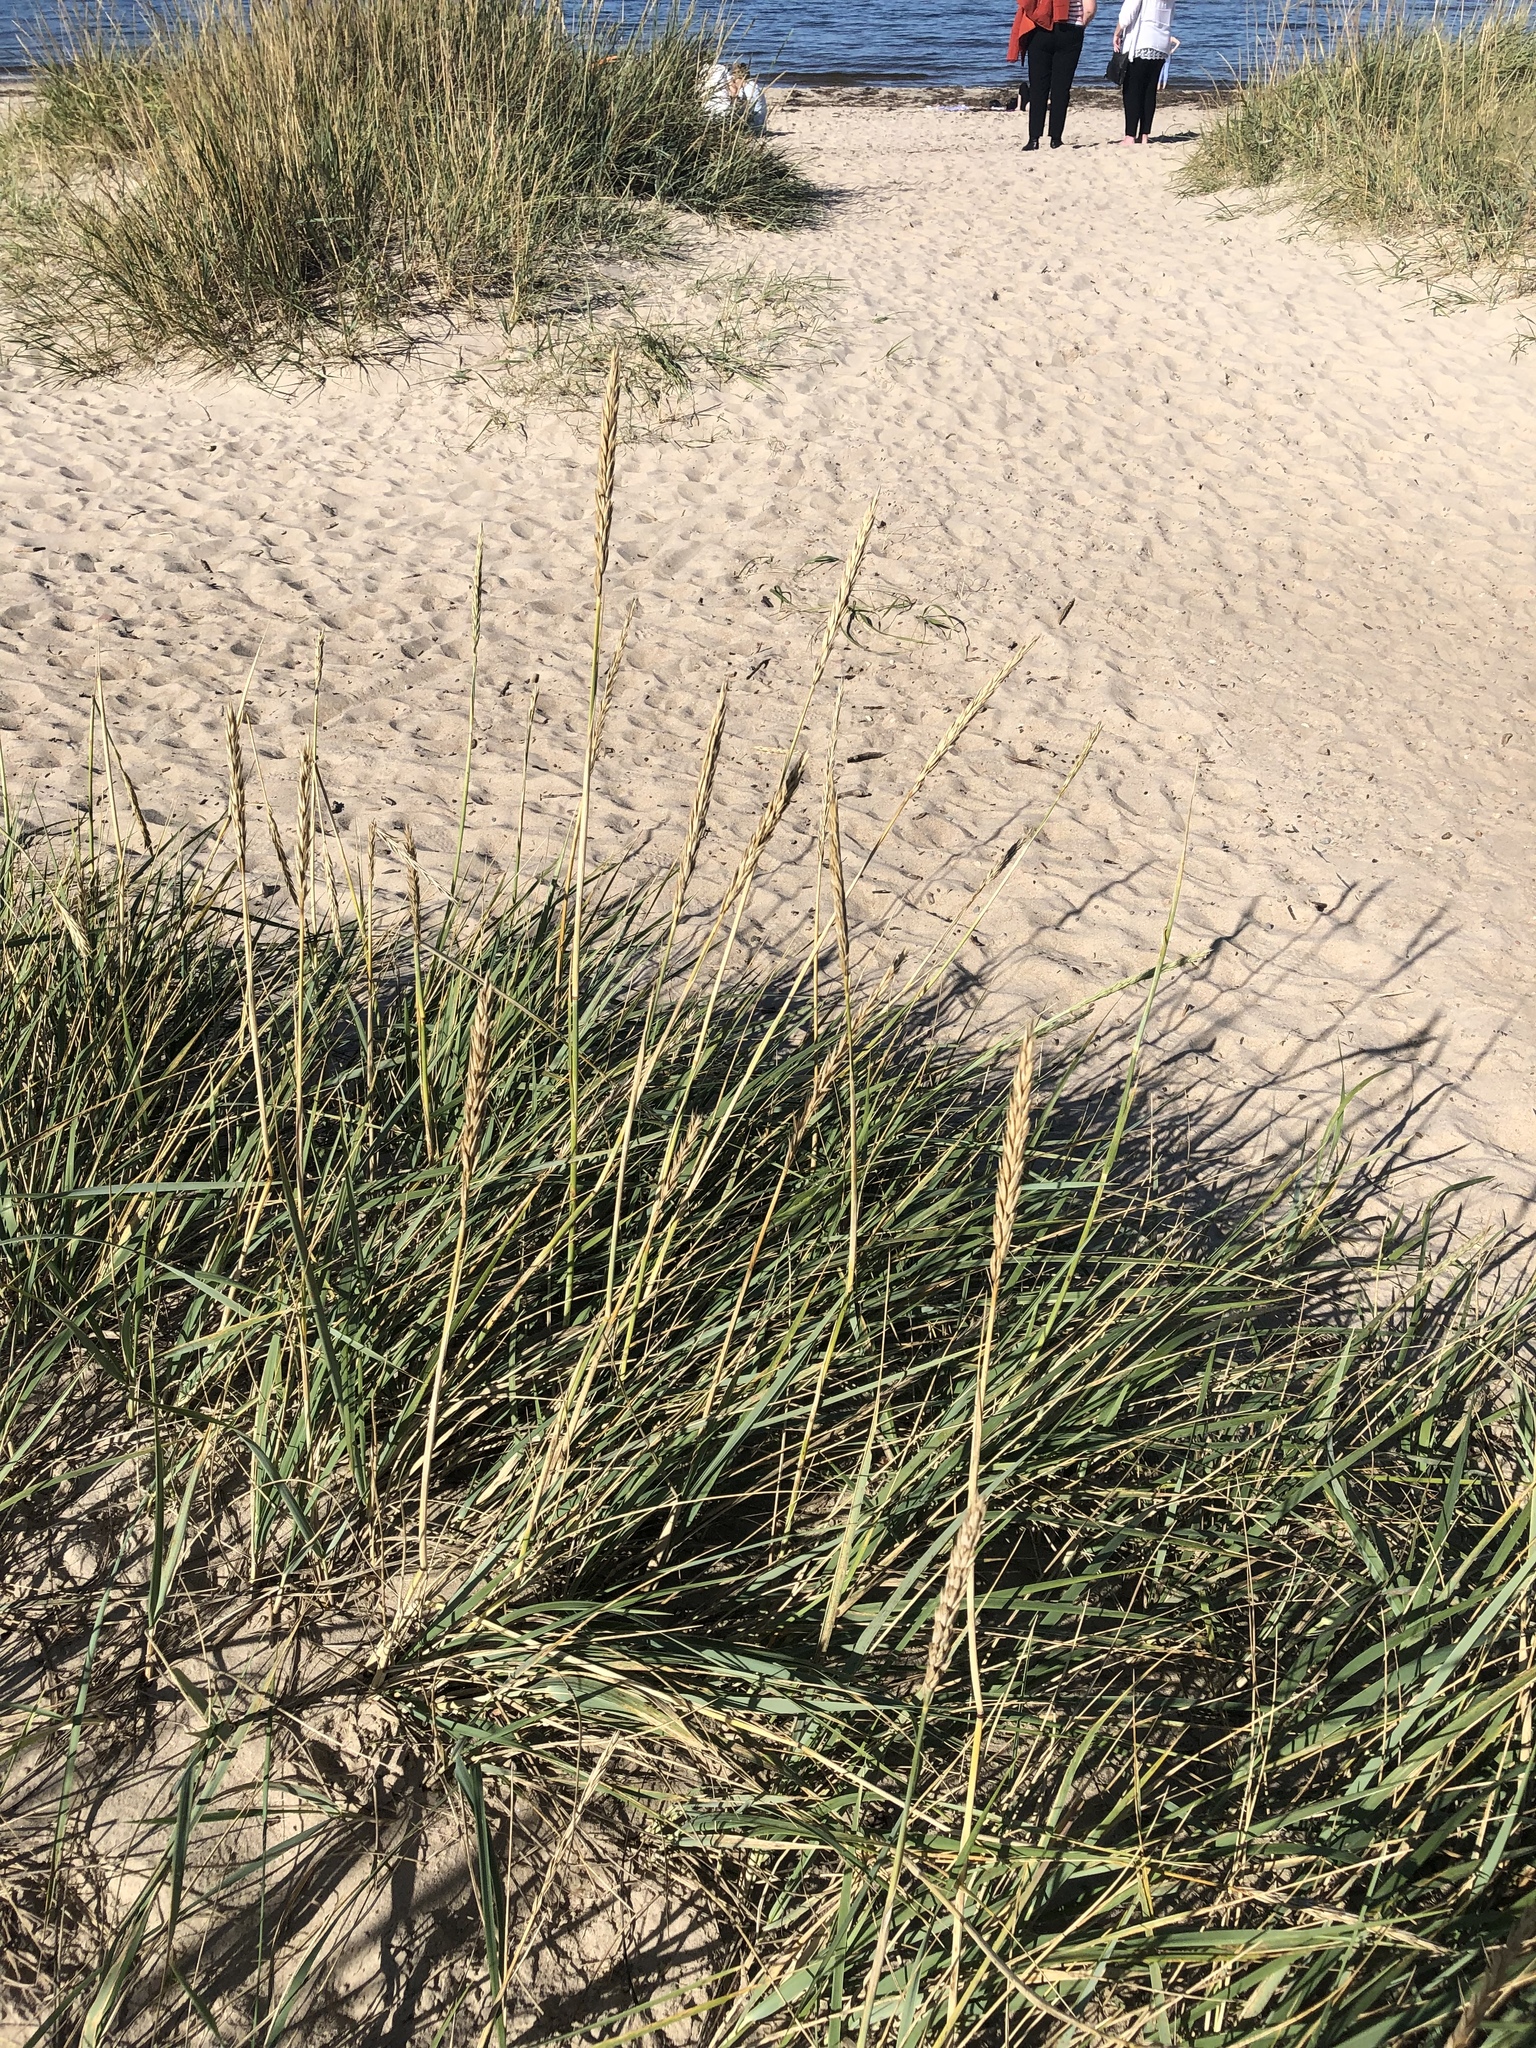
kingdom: Plantae
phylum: Tracheophyta
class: Liliopsida
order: Poales
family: Poaceae
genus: Leymus
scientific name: Leymus arenarius
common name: Lyme-grass
